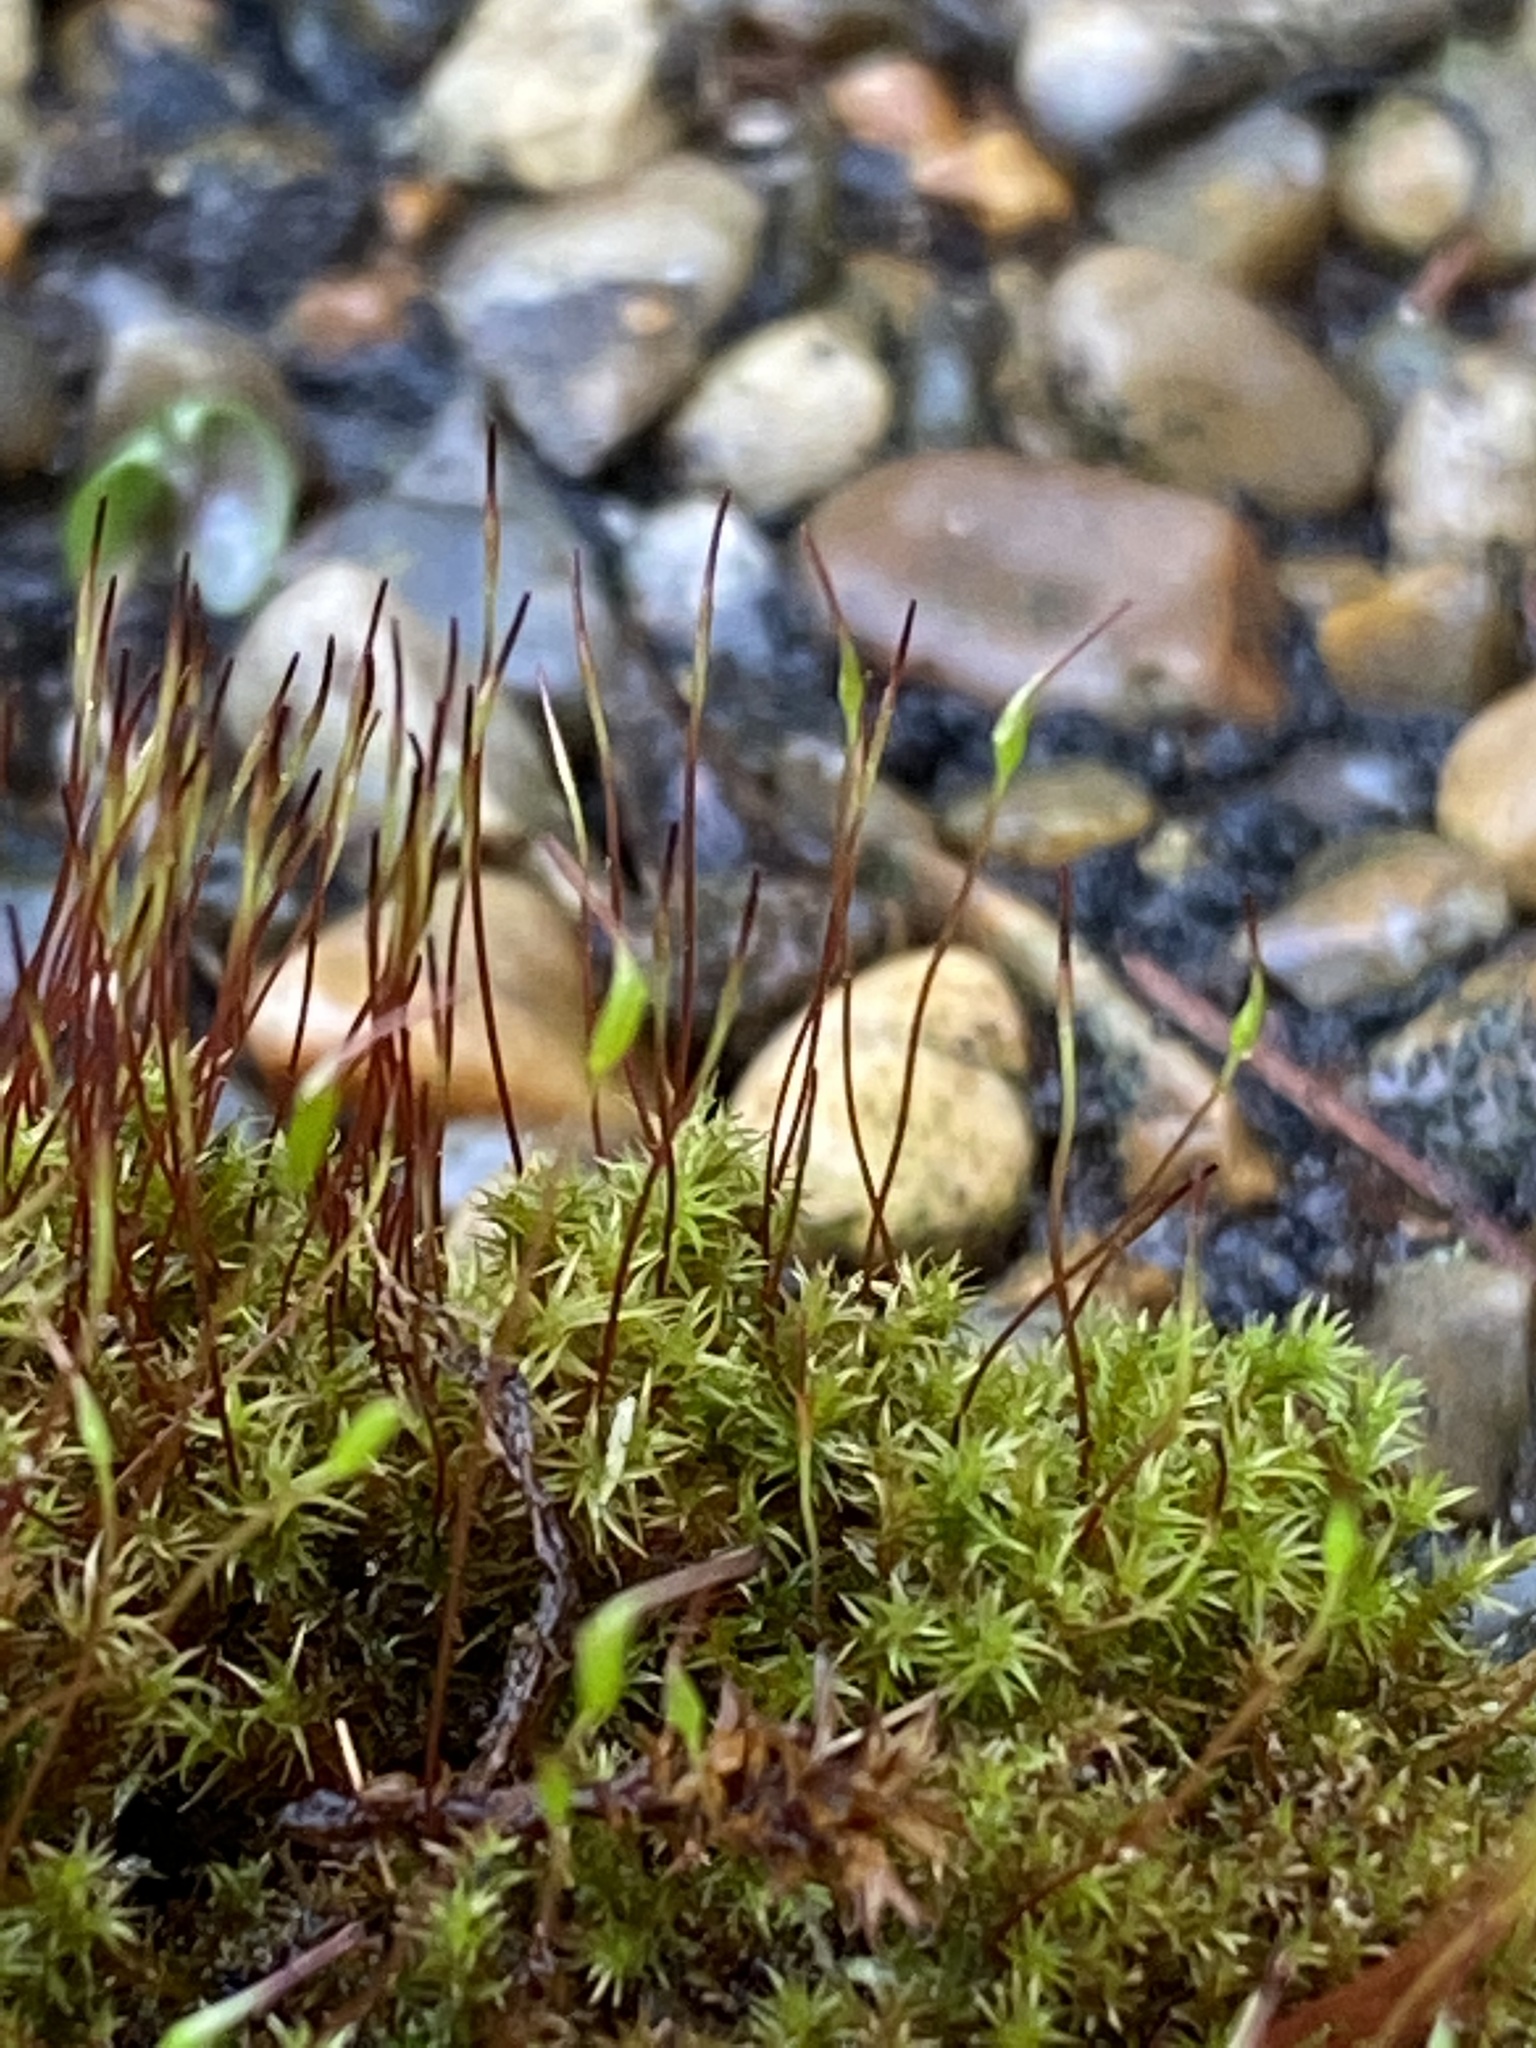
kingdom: Plantae
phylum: Bryophyta
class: Bryopsida
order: Dicranales
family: Ditrichaceae
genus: Ceratodon
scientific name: Ceratodon purpureus
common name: Redshank
